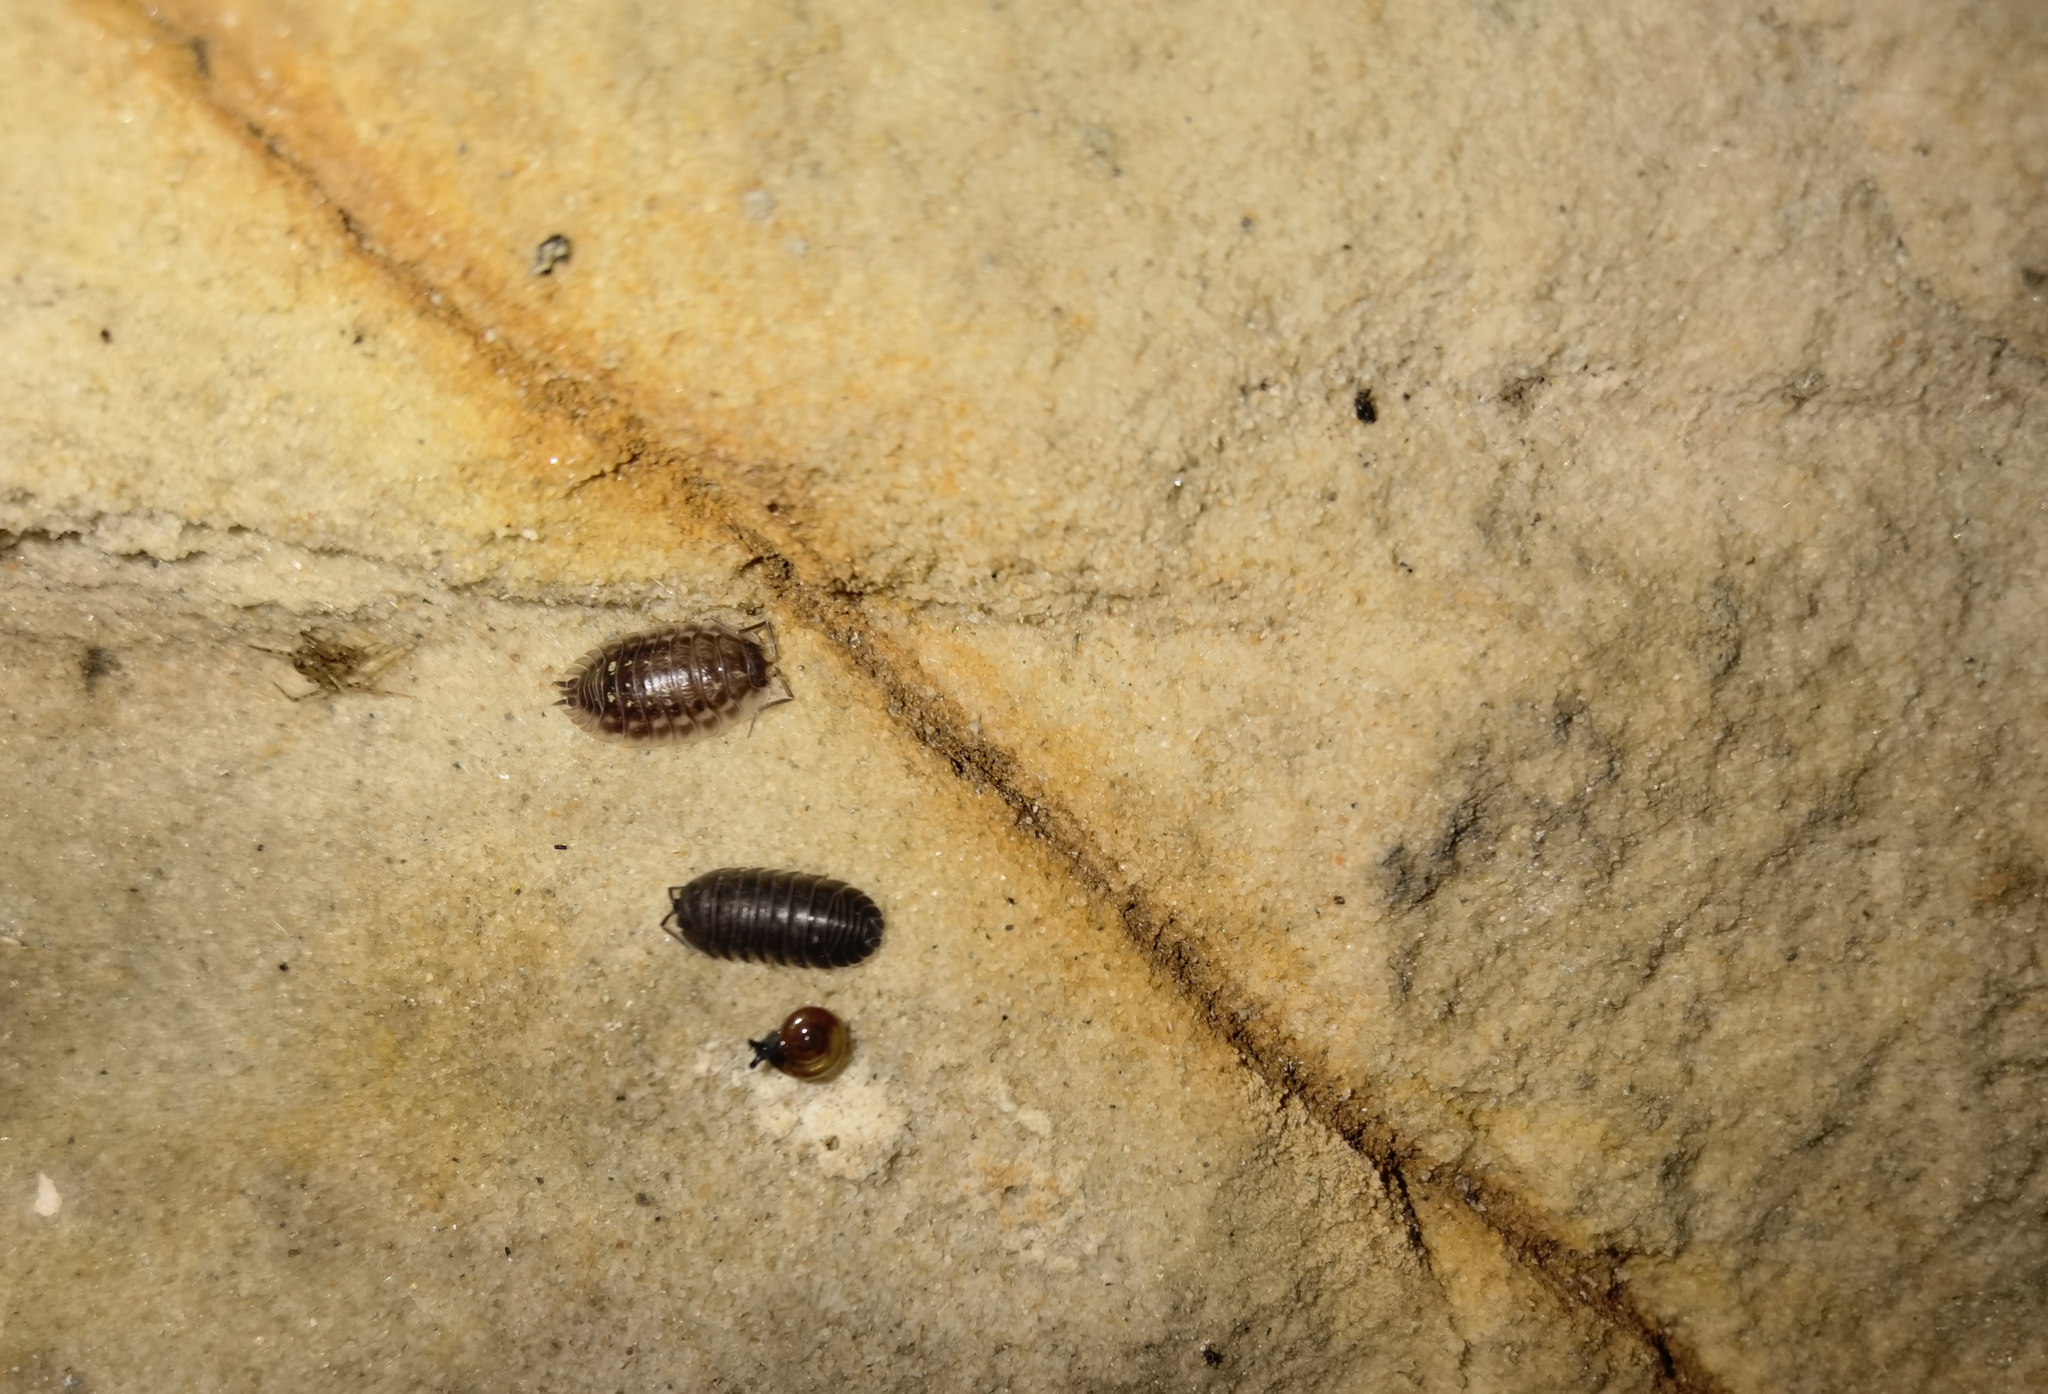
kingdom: Animalia
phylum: Arthropoda
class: Malacostraca
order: Isopoda
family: Armadillidiidae
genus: Armadillidium
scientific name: Armadillidium nasatum
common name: Isopod
